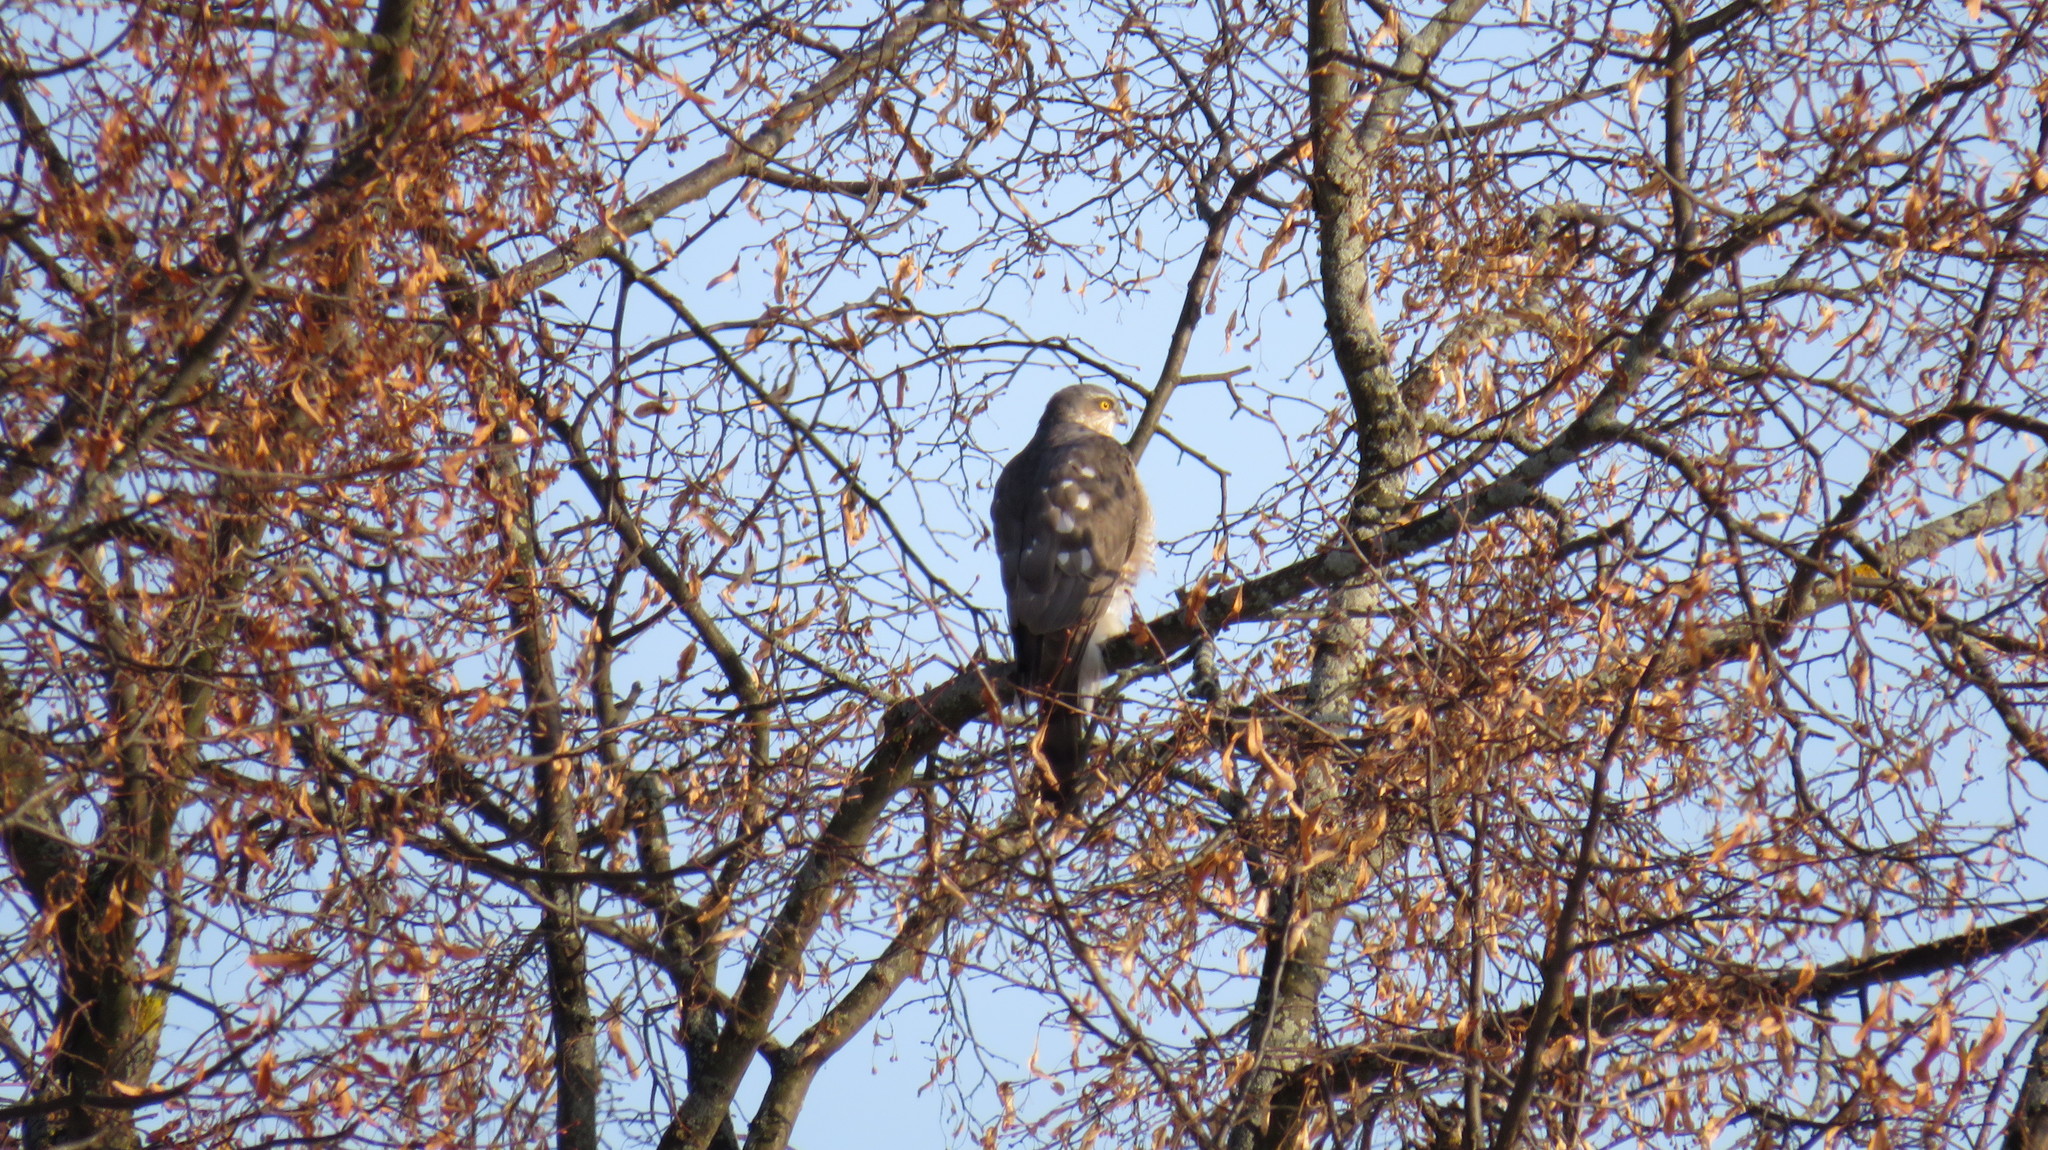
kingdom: Animalia
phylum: Chordata
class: Aves
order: Accipitriformes
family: Accipitridae
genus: Accipiter
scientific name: Accipiter nisus
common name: Eurasian sparrowhawk
